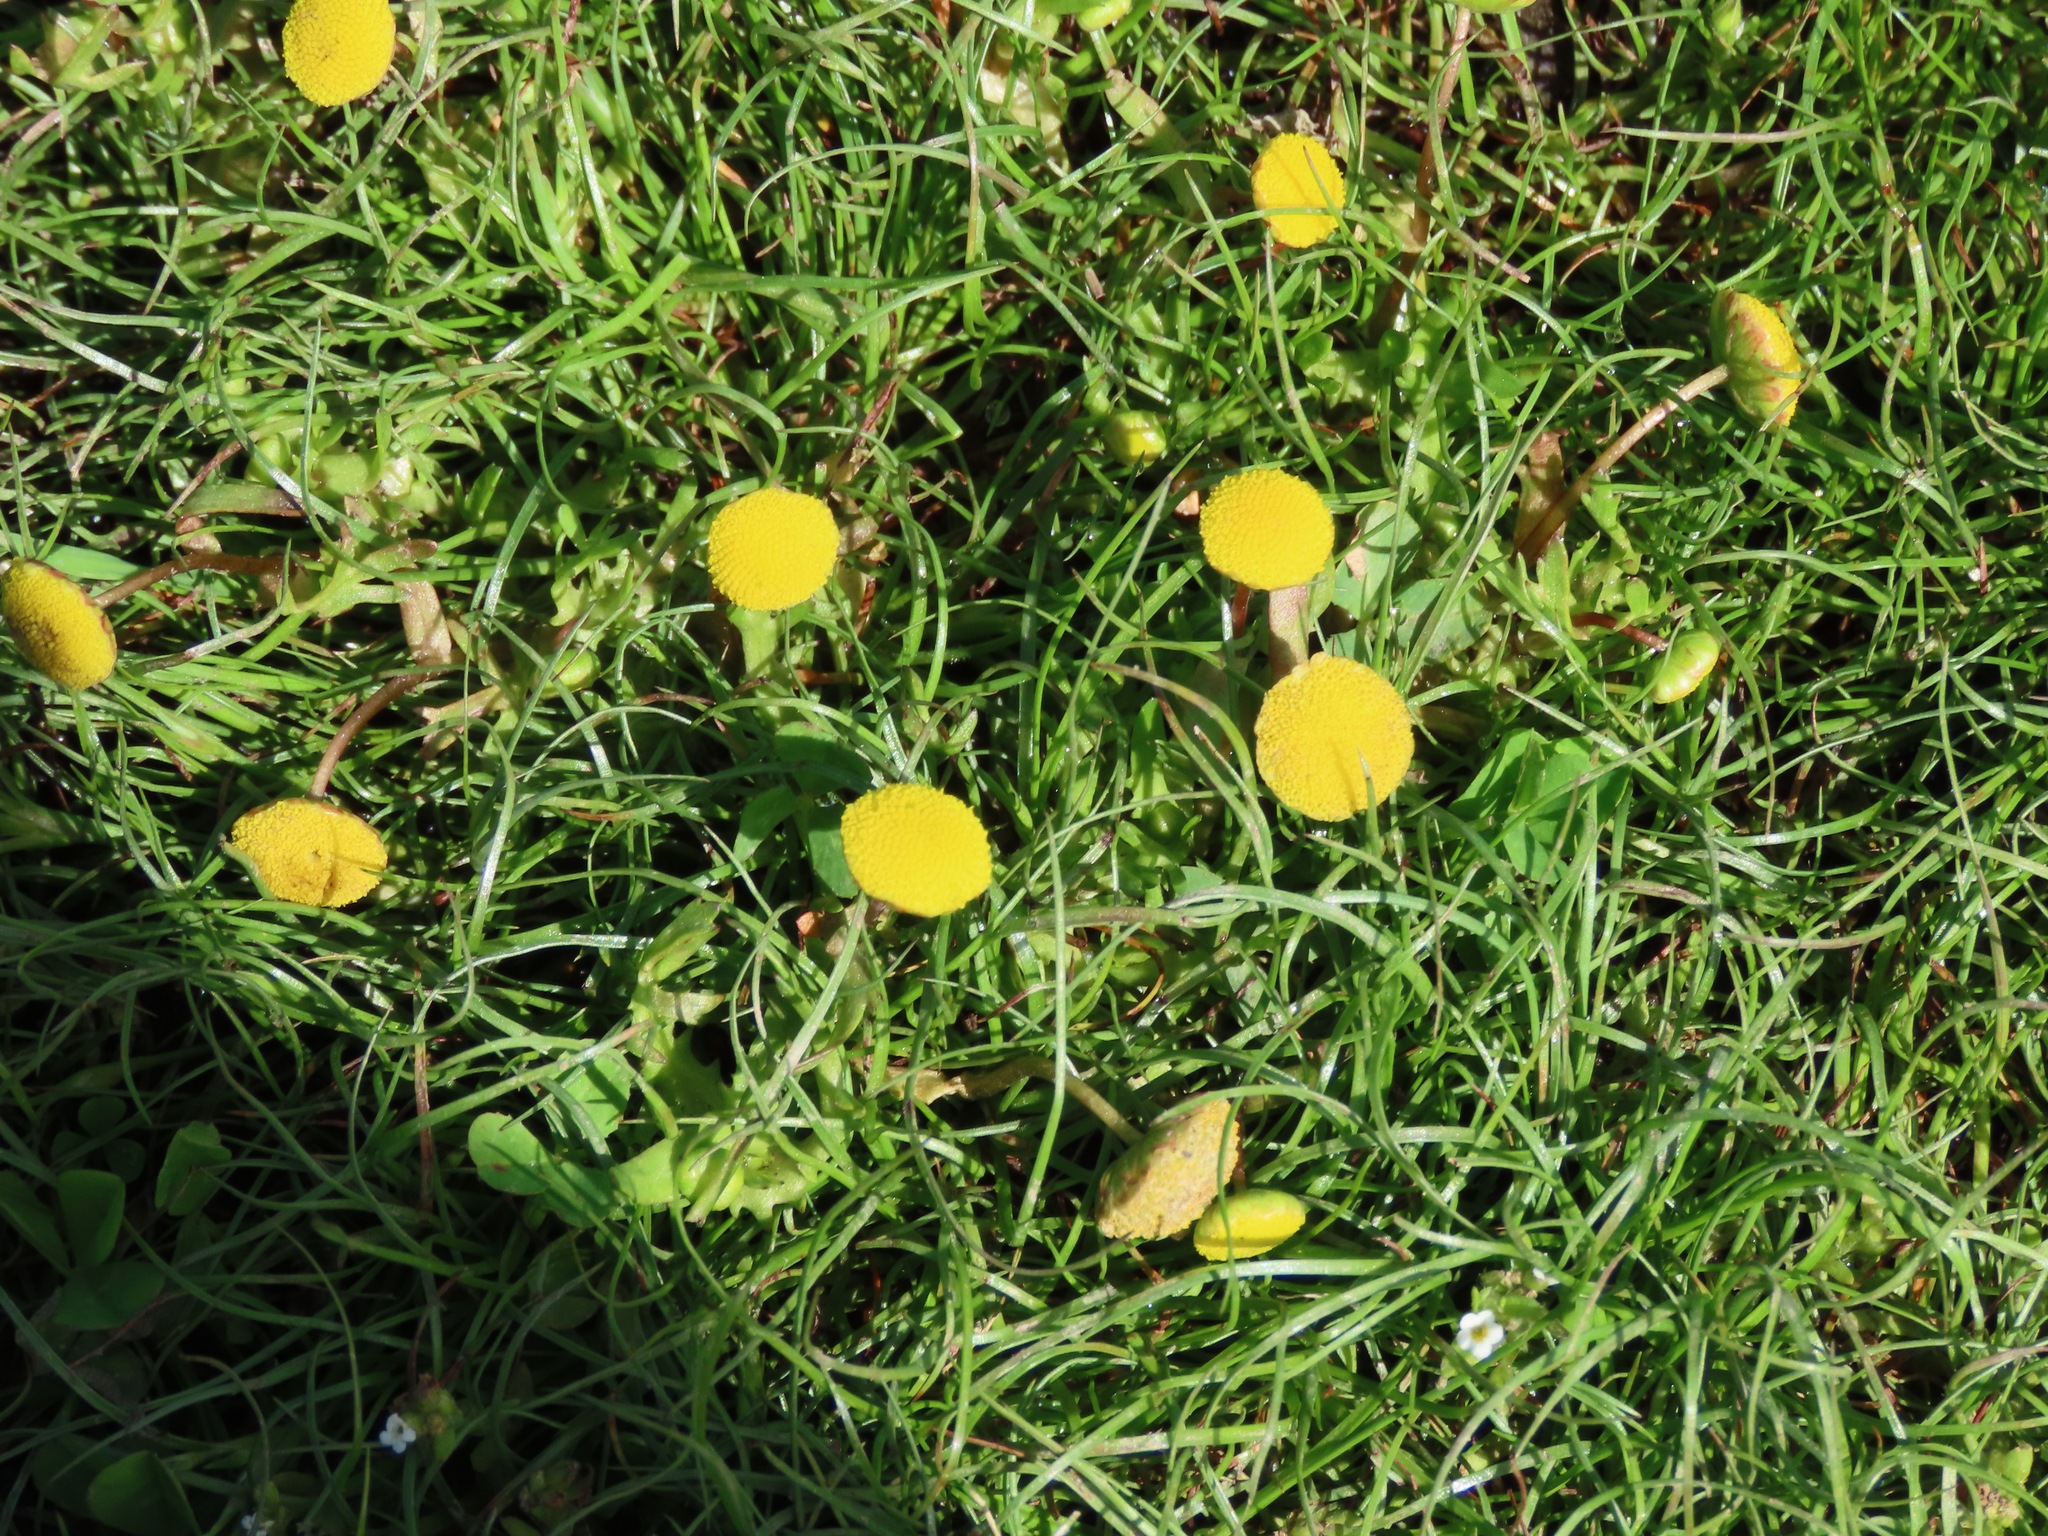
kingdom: Plantae
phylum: Tracheophyta
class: Magnoliopsida
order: Asterales
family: Asteraceae
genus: Cotula
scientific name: Cotula coronopifolia
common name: Buttonweed
